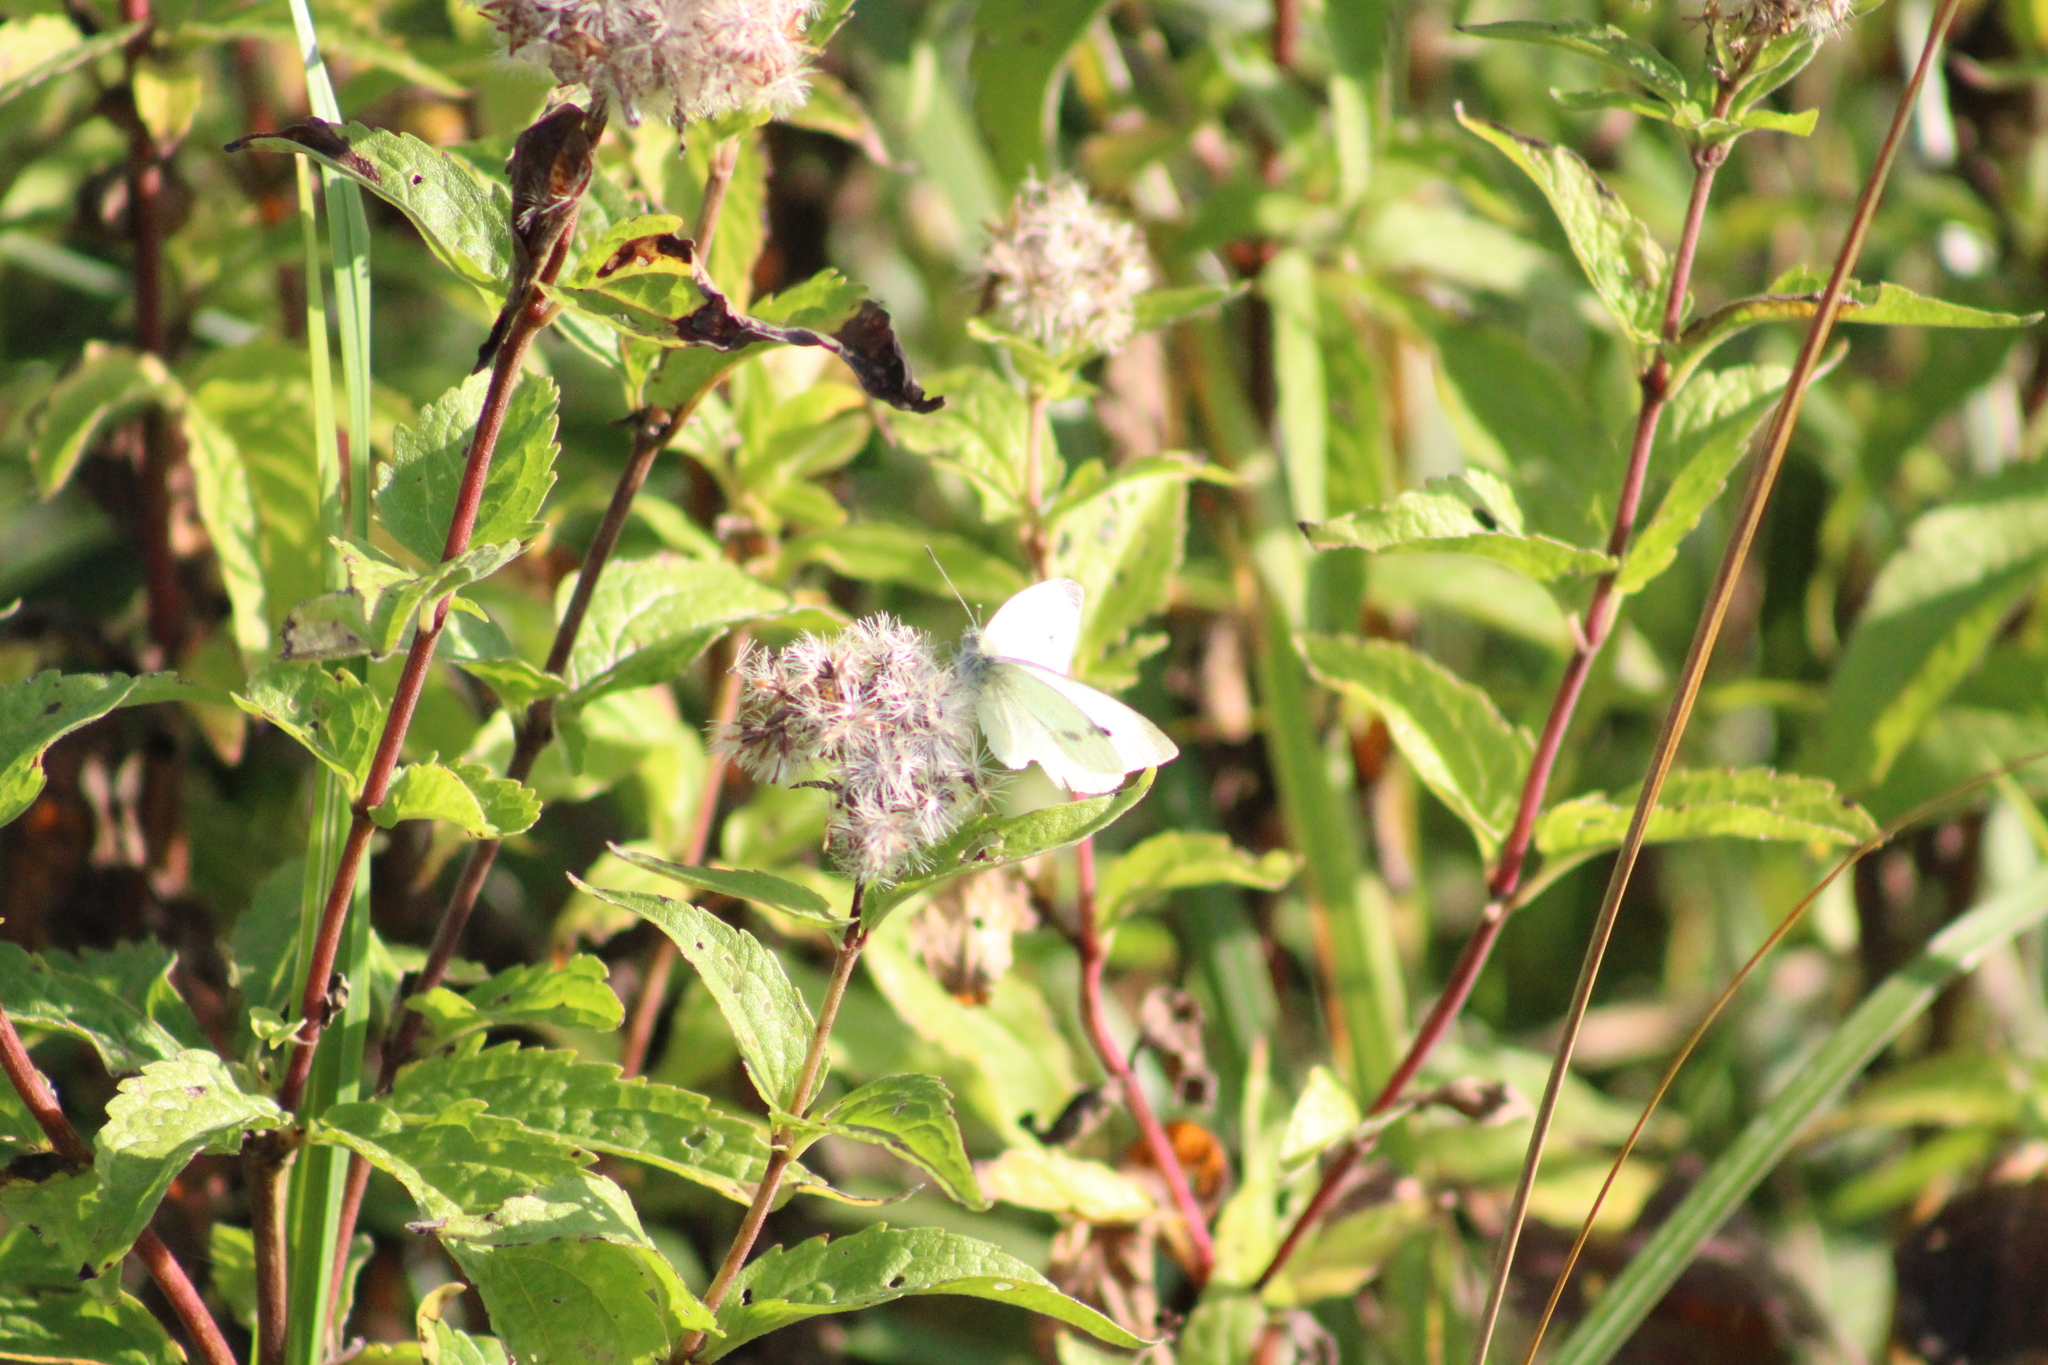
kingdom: Animalia
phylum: Arthropoda
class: Insecta
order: Lepidoptera
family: Pieridae
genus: Pieris
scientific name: Pieris rapae
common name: Small white
